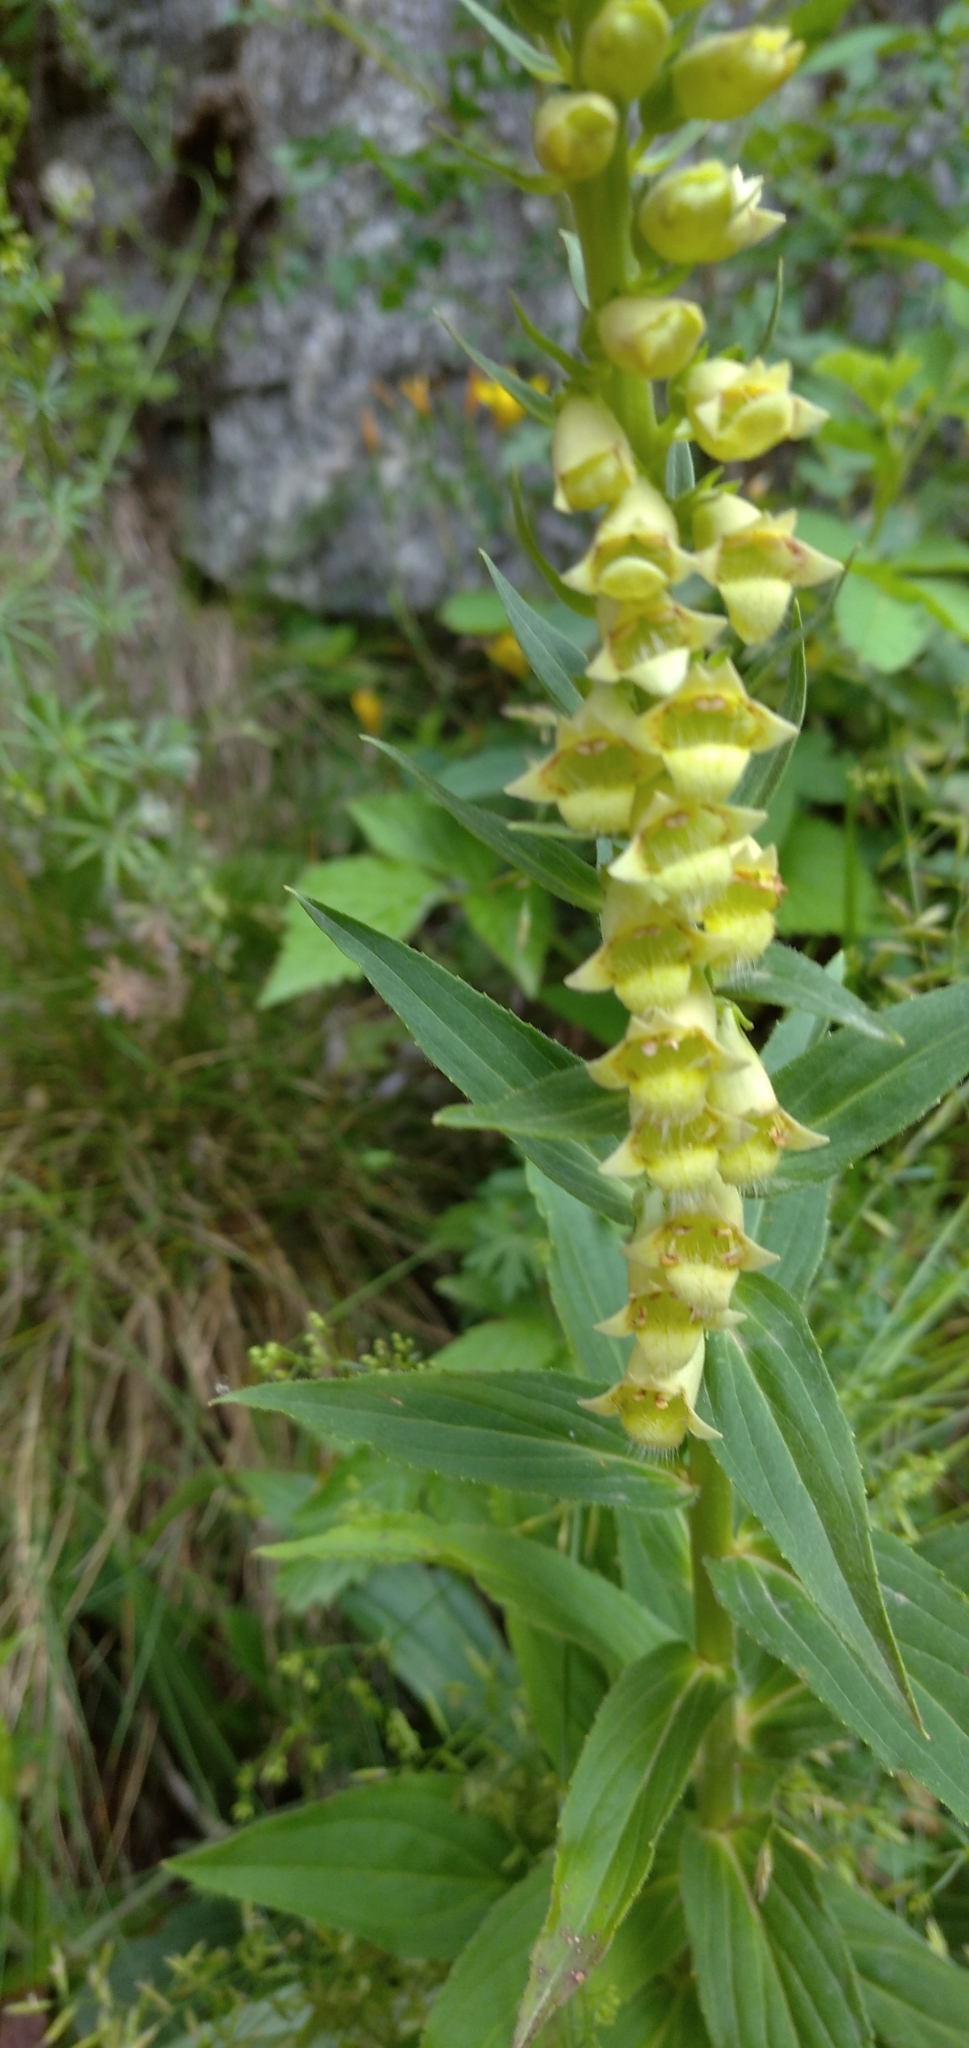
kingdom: Plantae
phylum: Tracheophyta
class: Magnoliopsida
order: Lamiales
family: Plantaginaceae
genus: Digitalis
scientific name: Digitalis lutea
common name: Straw foxglove
